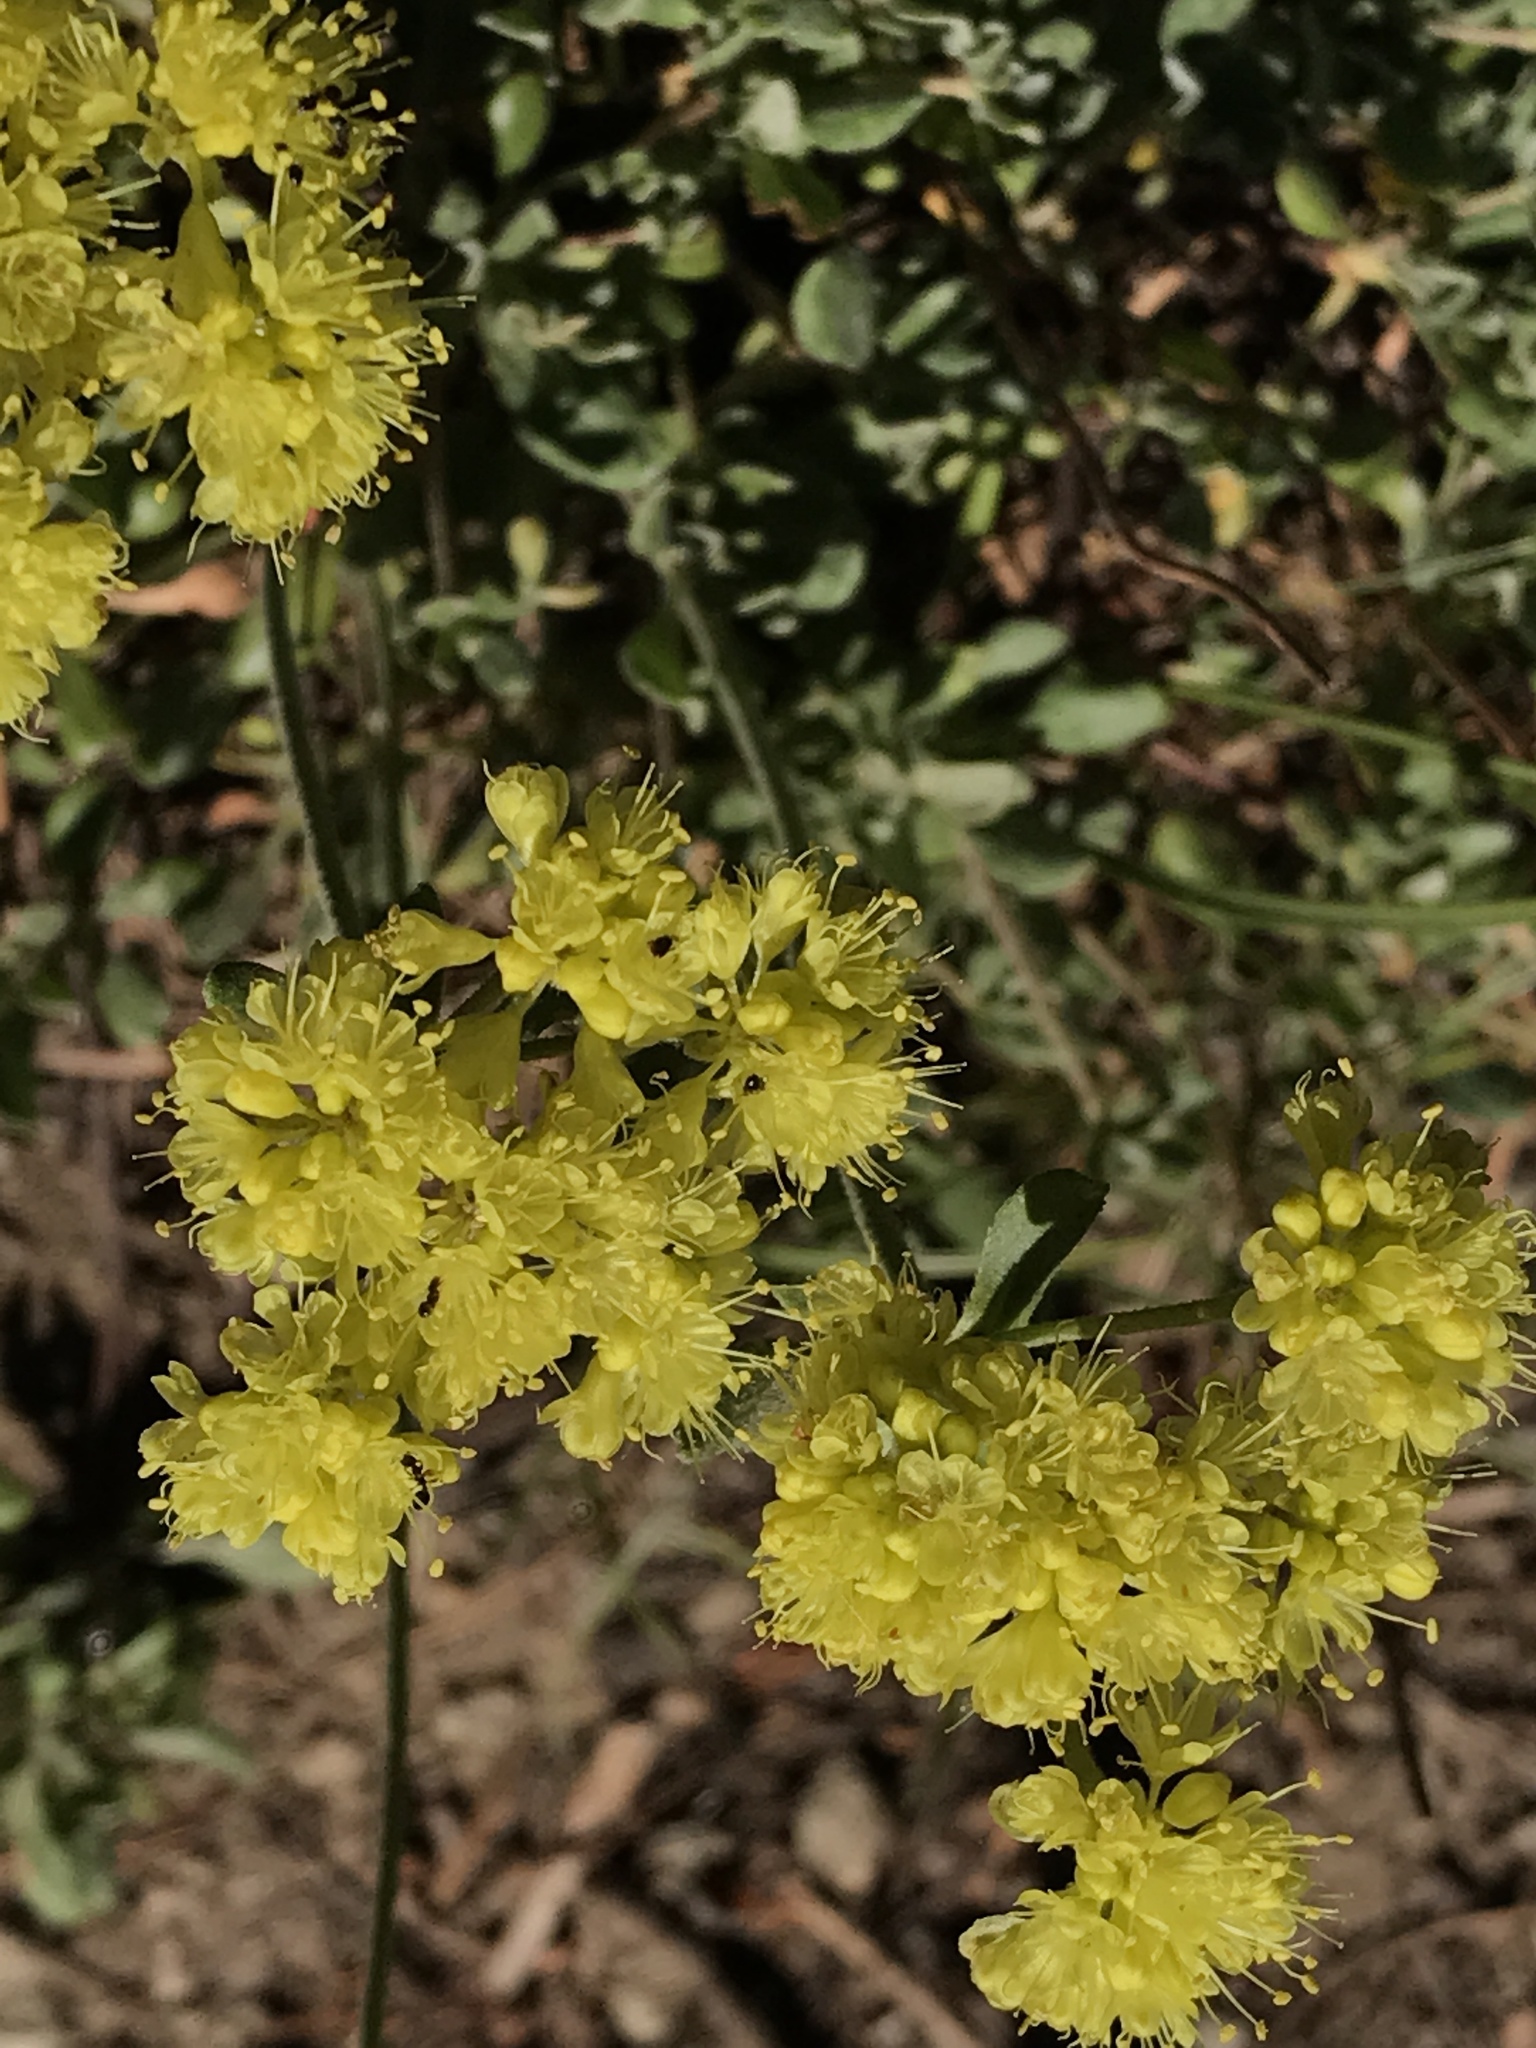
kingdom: Plantae
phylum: Tracheophyta
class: Magnoliopsida
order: Caryophyllales
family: Polygonaceae
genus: Eriogonum
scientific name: Eriogonum umbellatum
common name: Sulfur-buckwheat
